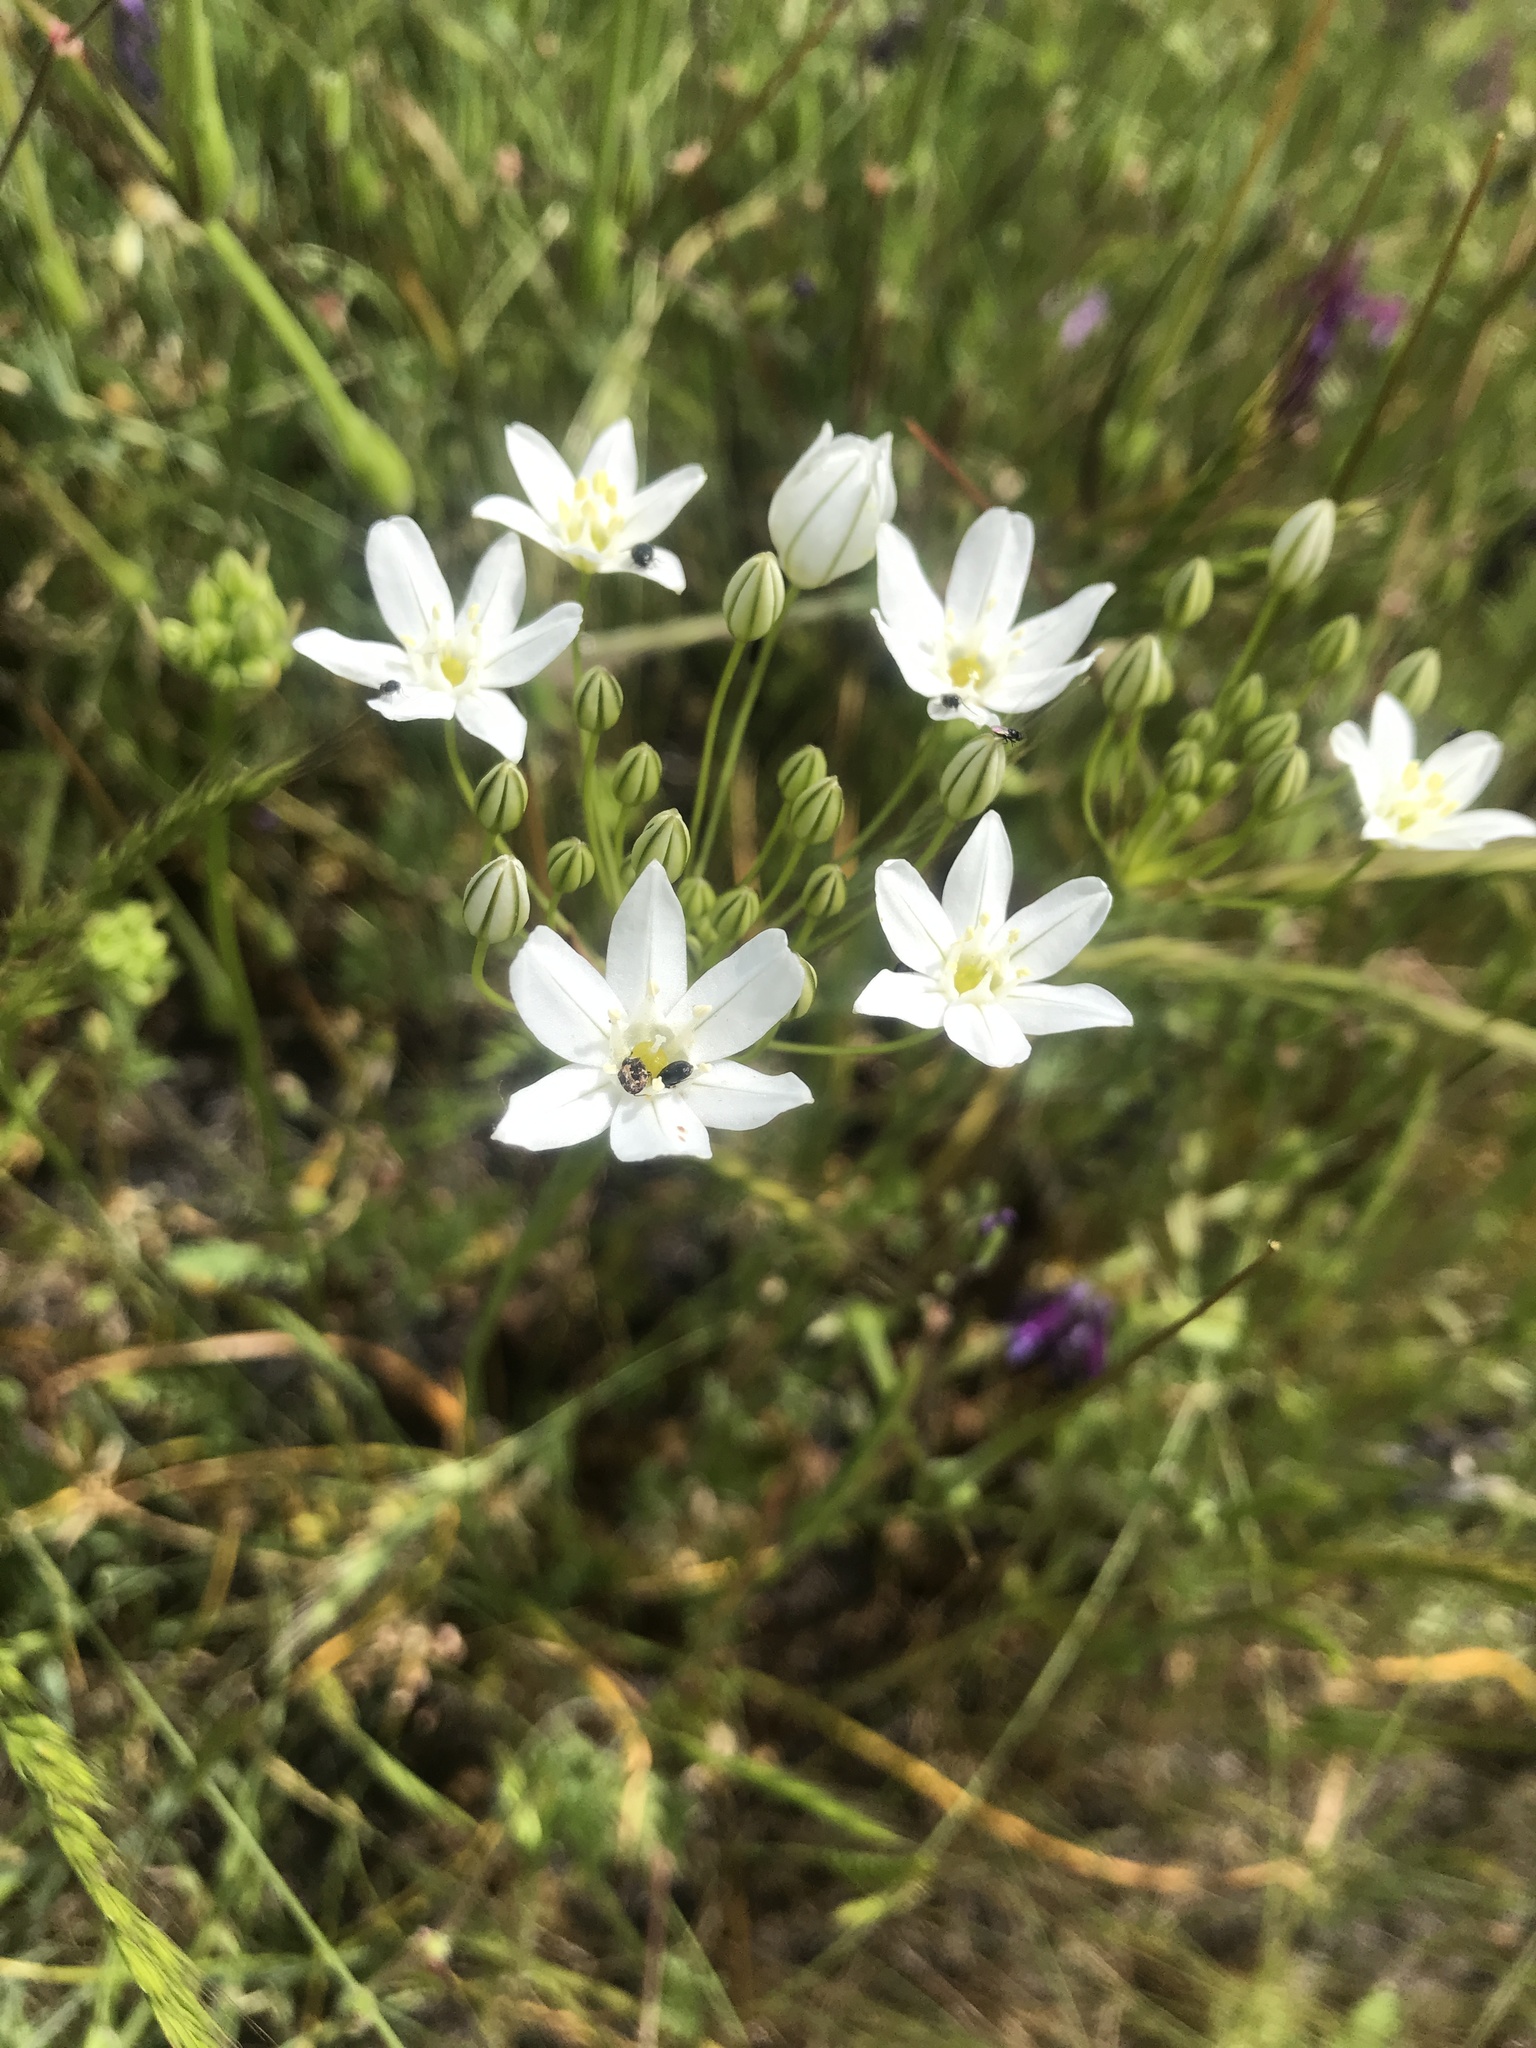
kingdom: Plantae
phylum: Tracheophyta
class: Liliopsida
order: Asparagales
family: Asparagaceae
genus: Triteleia
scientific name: Triteleia hyacinthina
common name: White brodiaea
